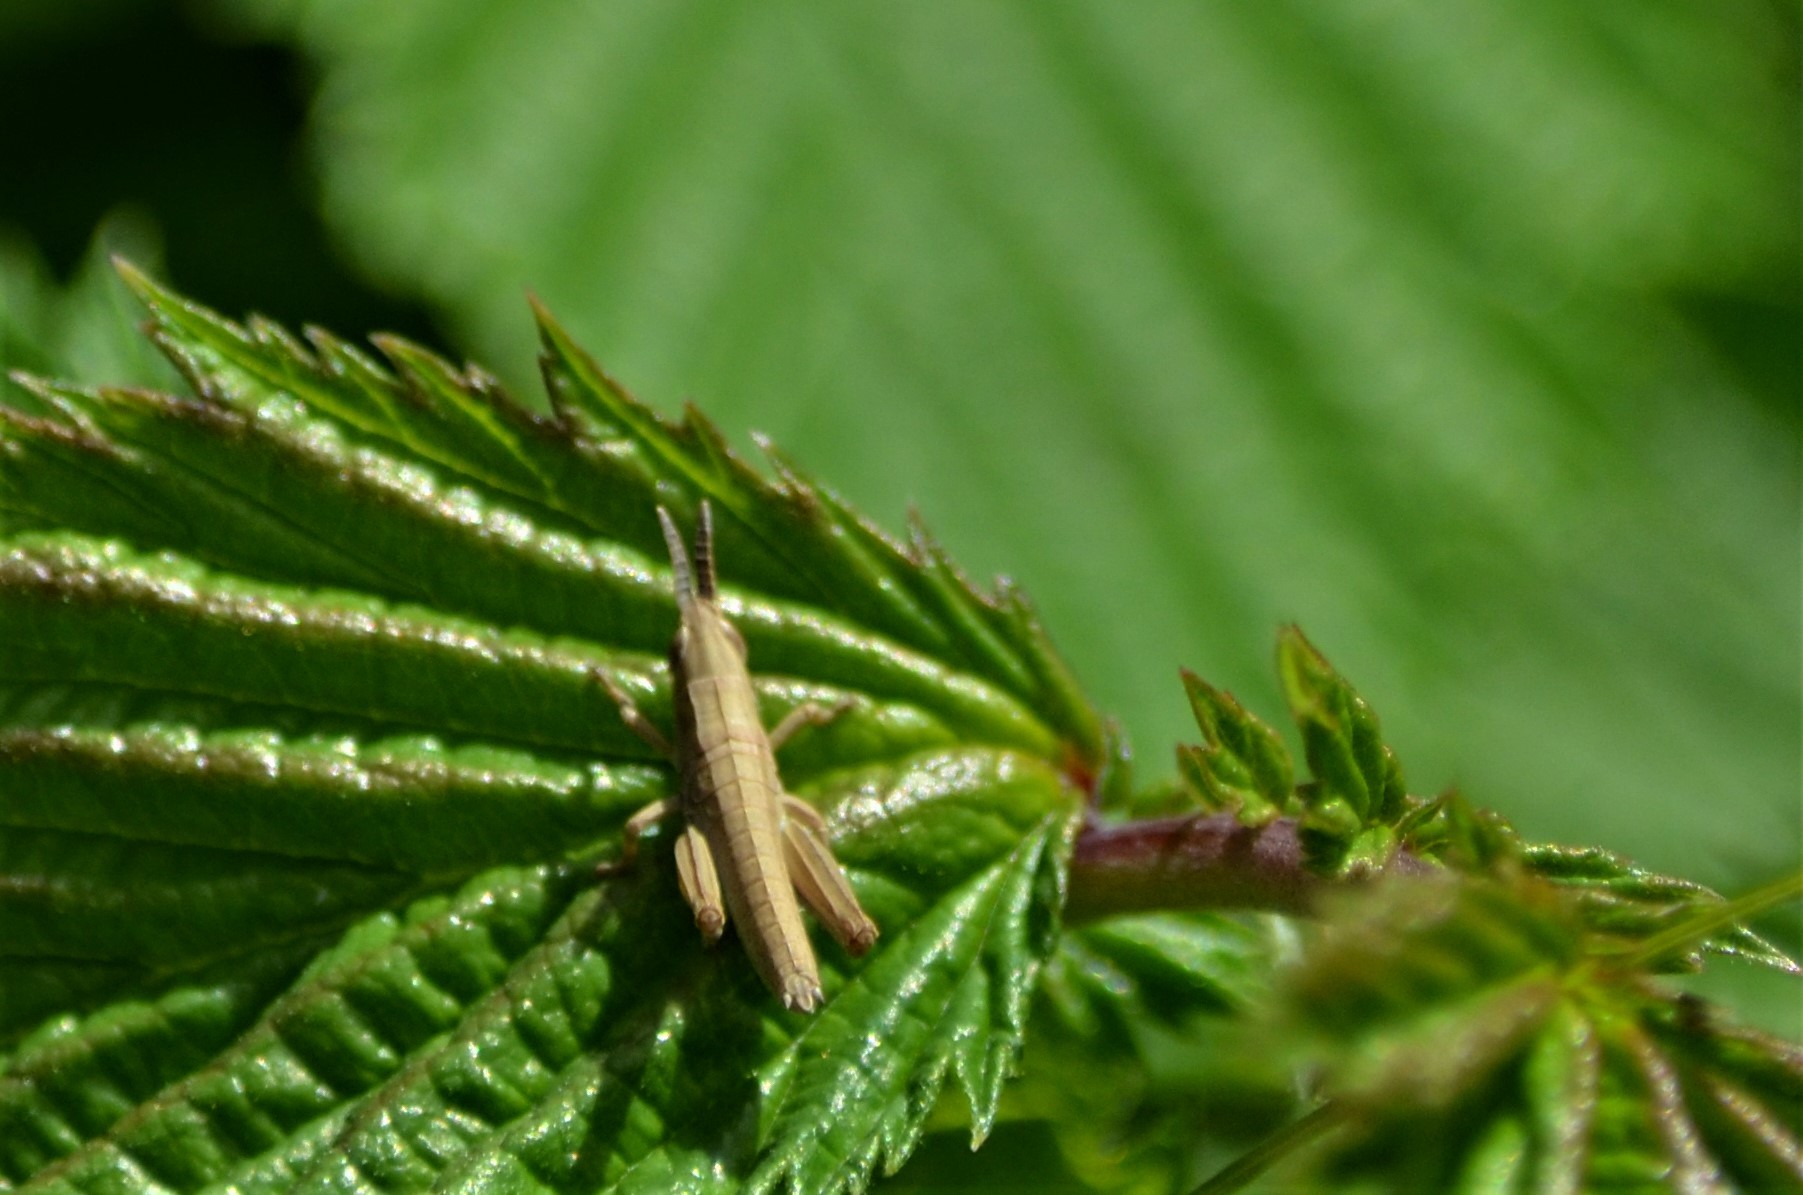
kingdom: Animalia
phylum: Arthropoda
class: Insecta
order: Orthoptera
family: Acrididae
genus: Euthystira
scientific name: Euthystira brachyptera
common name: Small gold grasshopper
